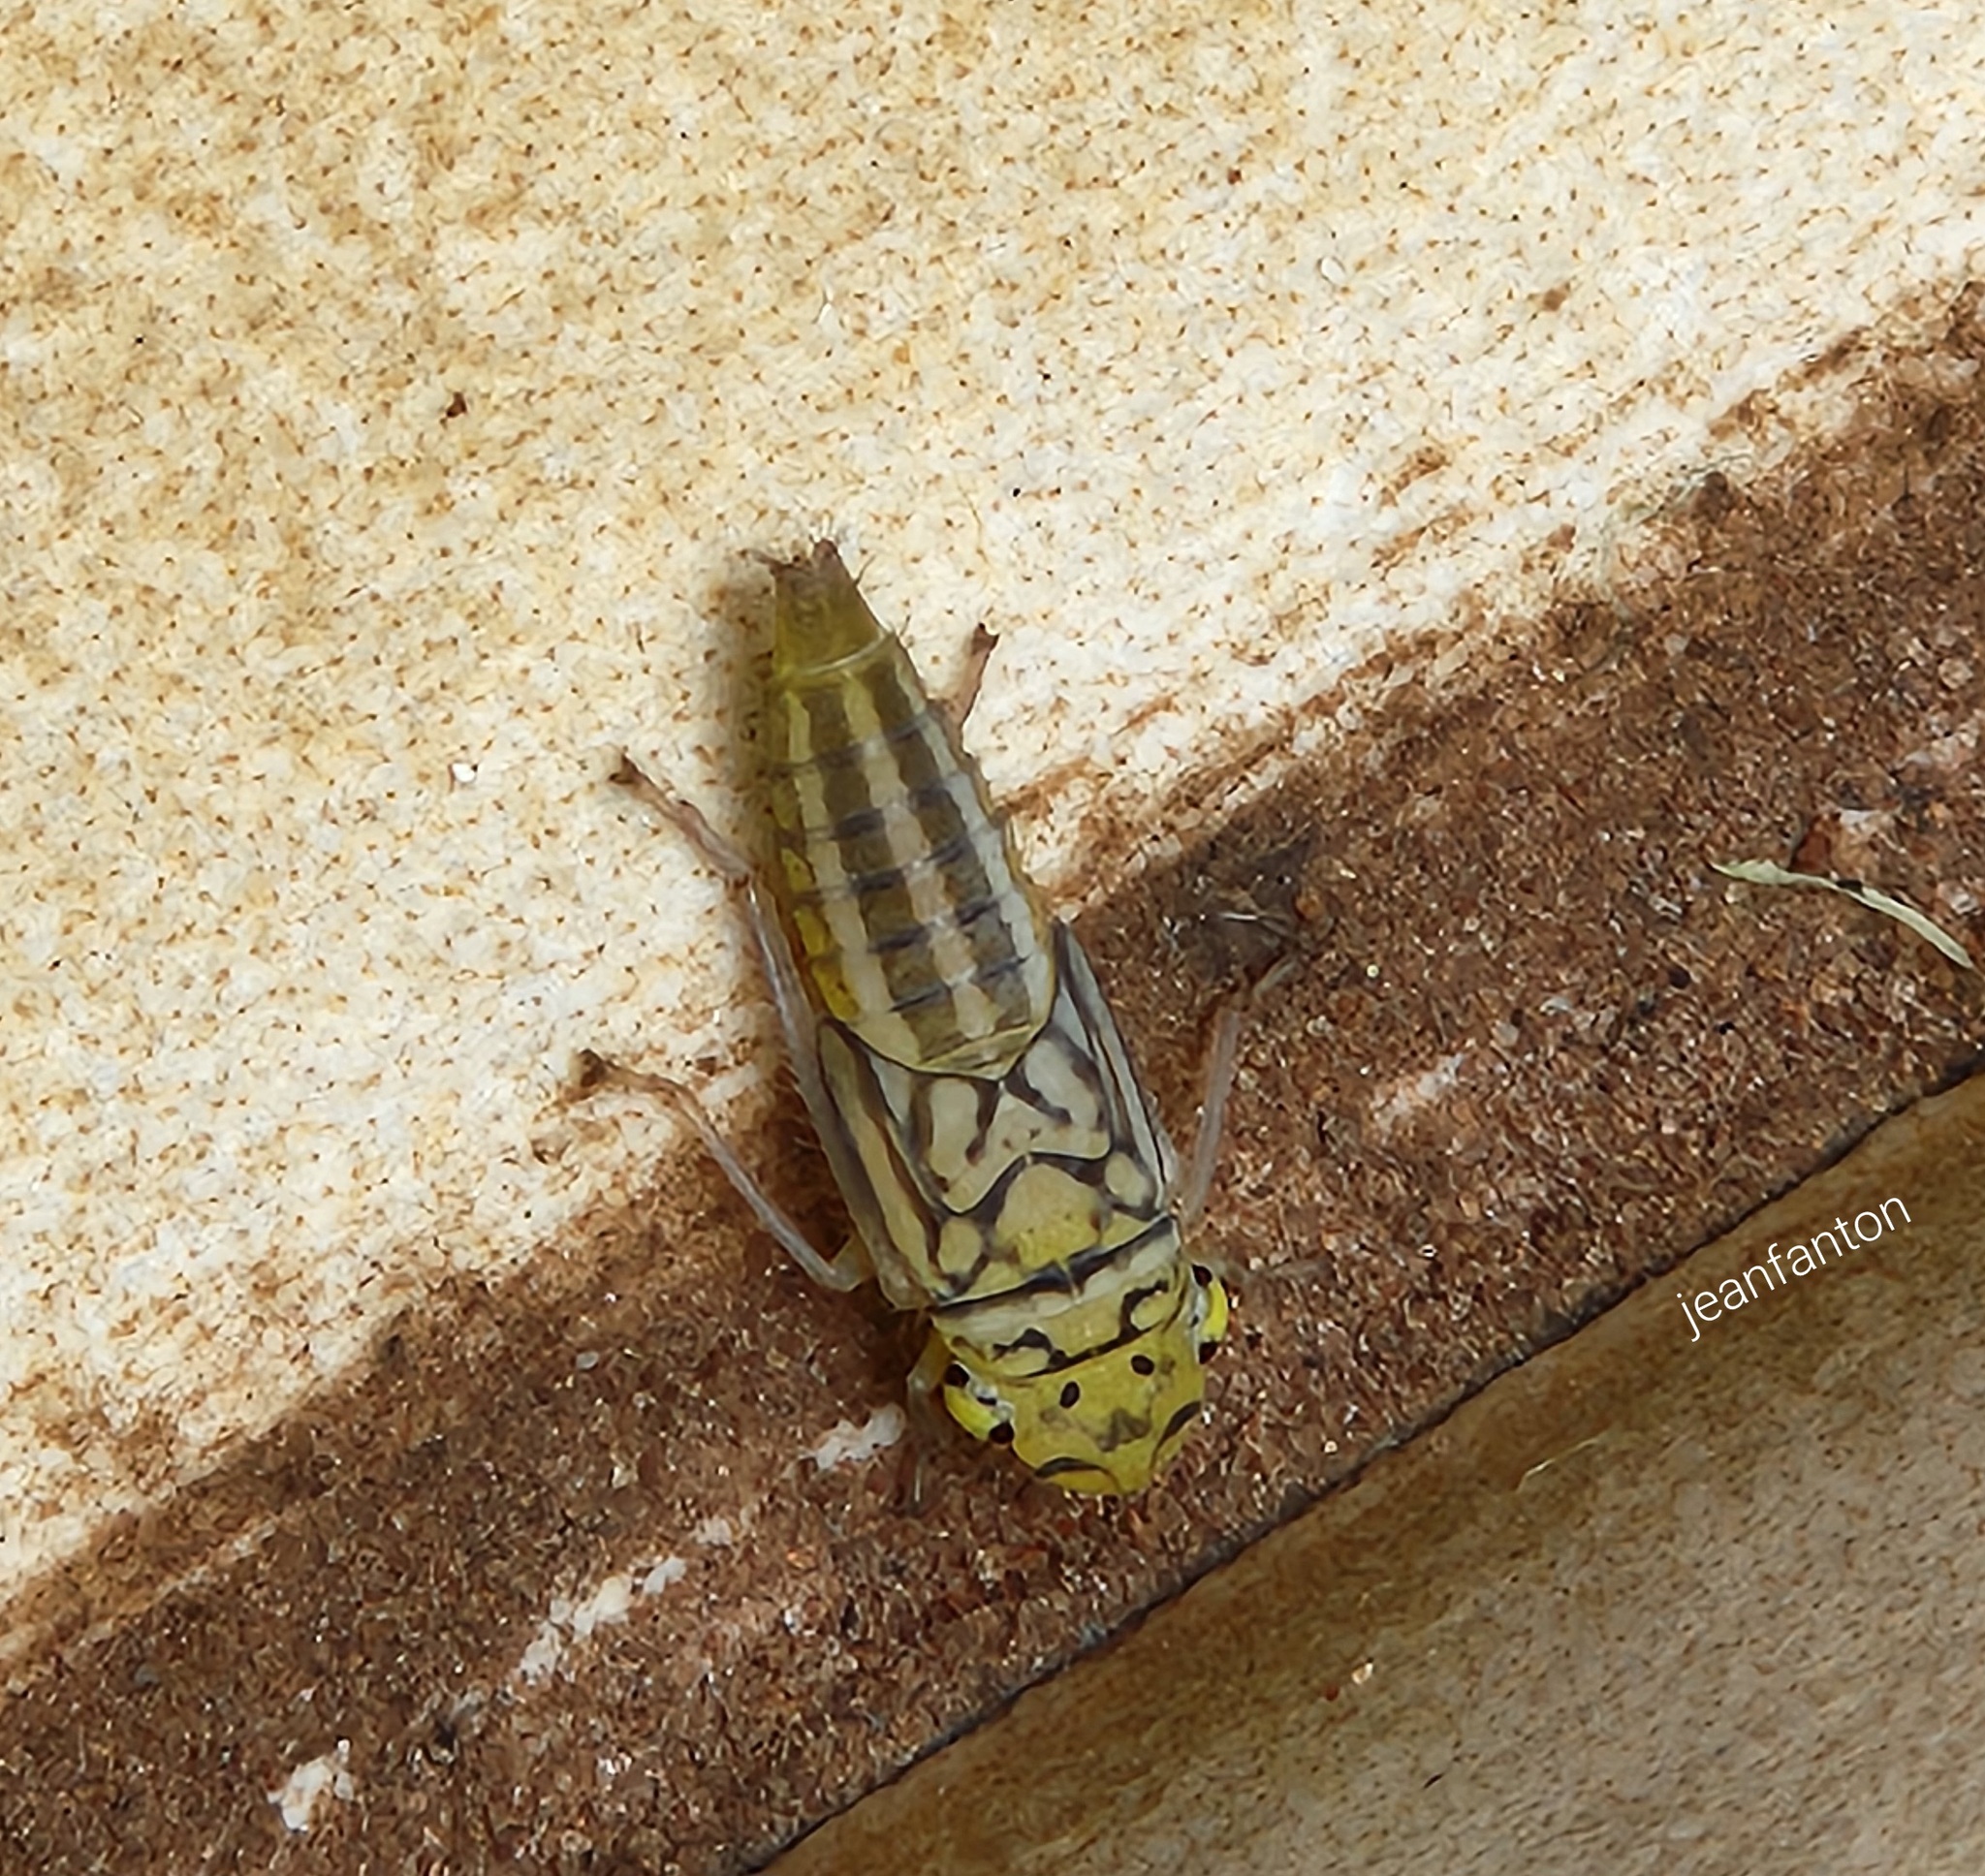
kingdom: Animalia
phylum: Arthropoda
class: Insecta
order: Hemiptera
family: Cicadellidae
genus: Dilobopterus
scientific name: Dilobopterus costalimai
